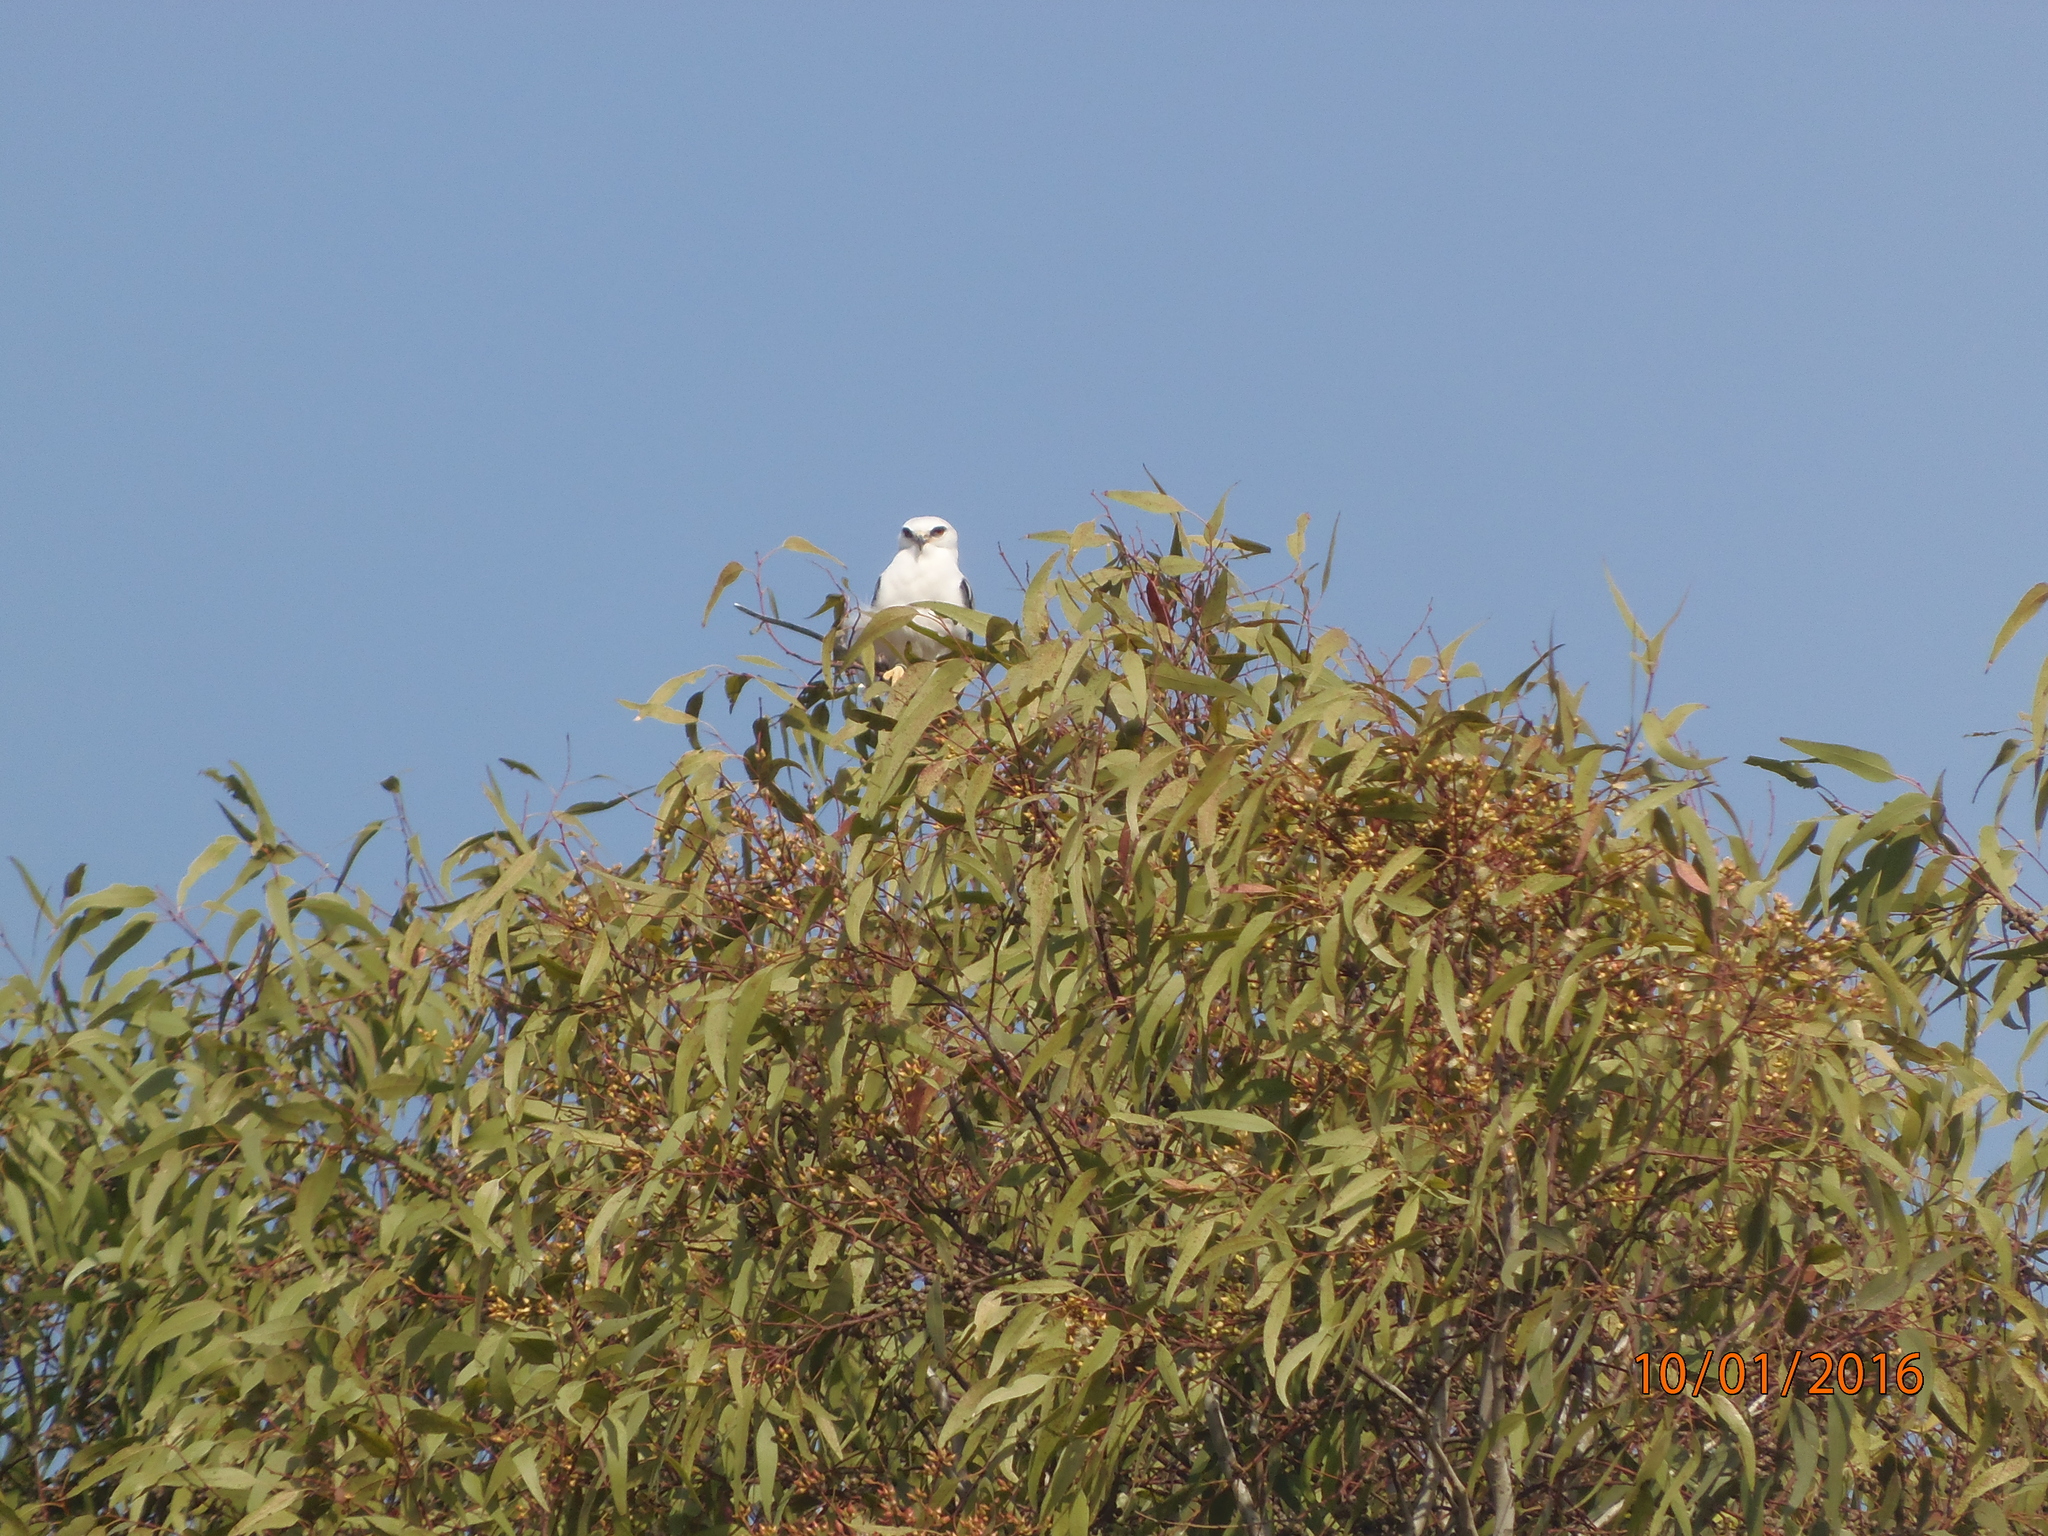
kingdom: Animalia
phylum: Chordata
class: Aves
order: Accipitriformes
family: Accipitridae
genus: Elanus
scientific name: Elanus leucurus
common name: White-tailed kite
